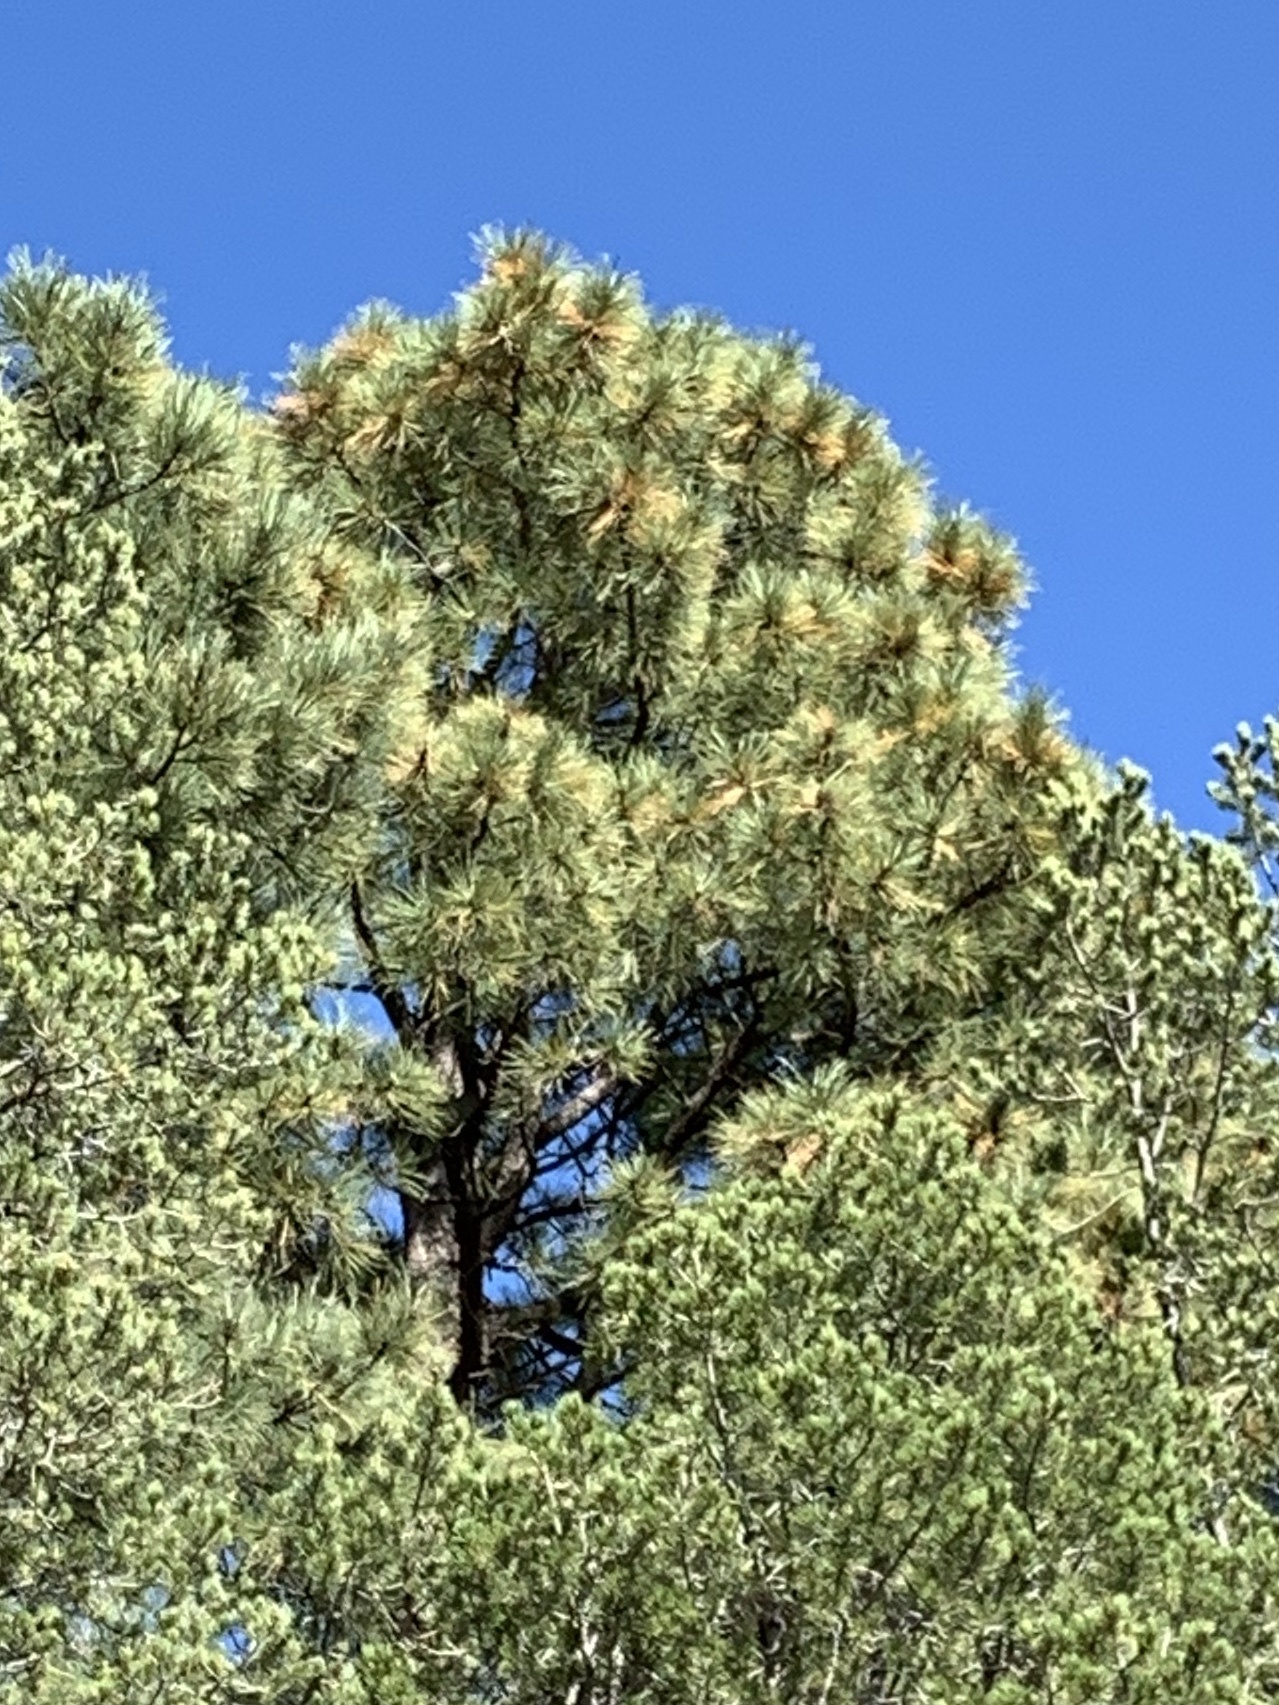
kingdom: Plantae
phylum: Tracheophyta
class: Pinopsida
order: Pinales
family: Pinaceae
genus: Pinus
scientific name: Pinus ponderosa
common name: Western yellow-pine
